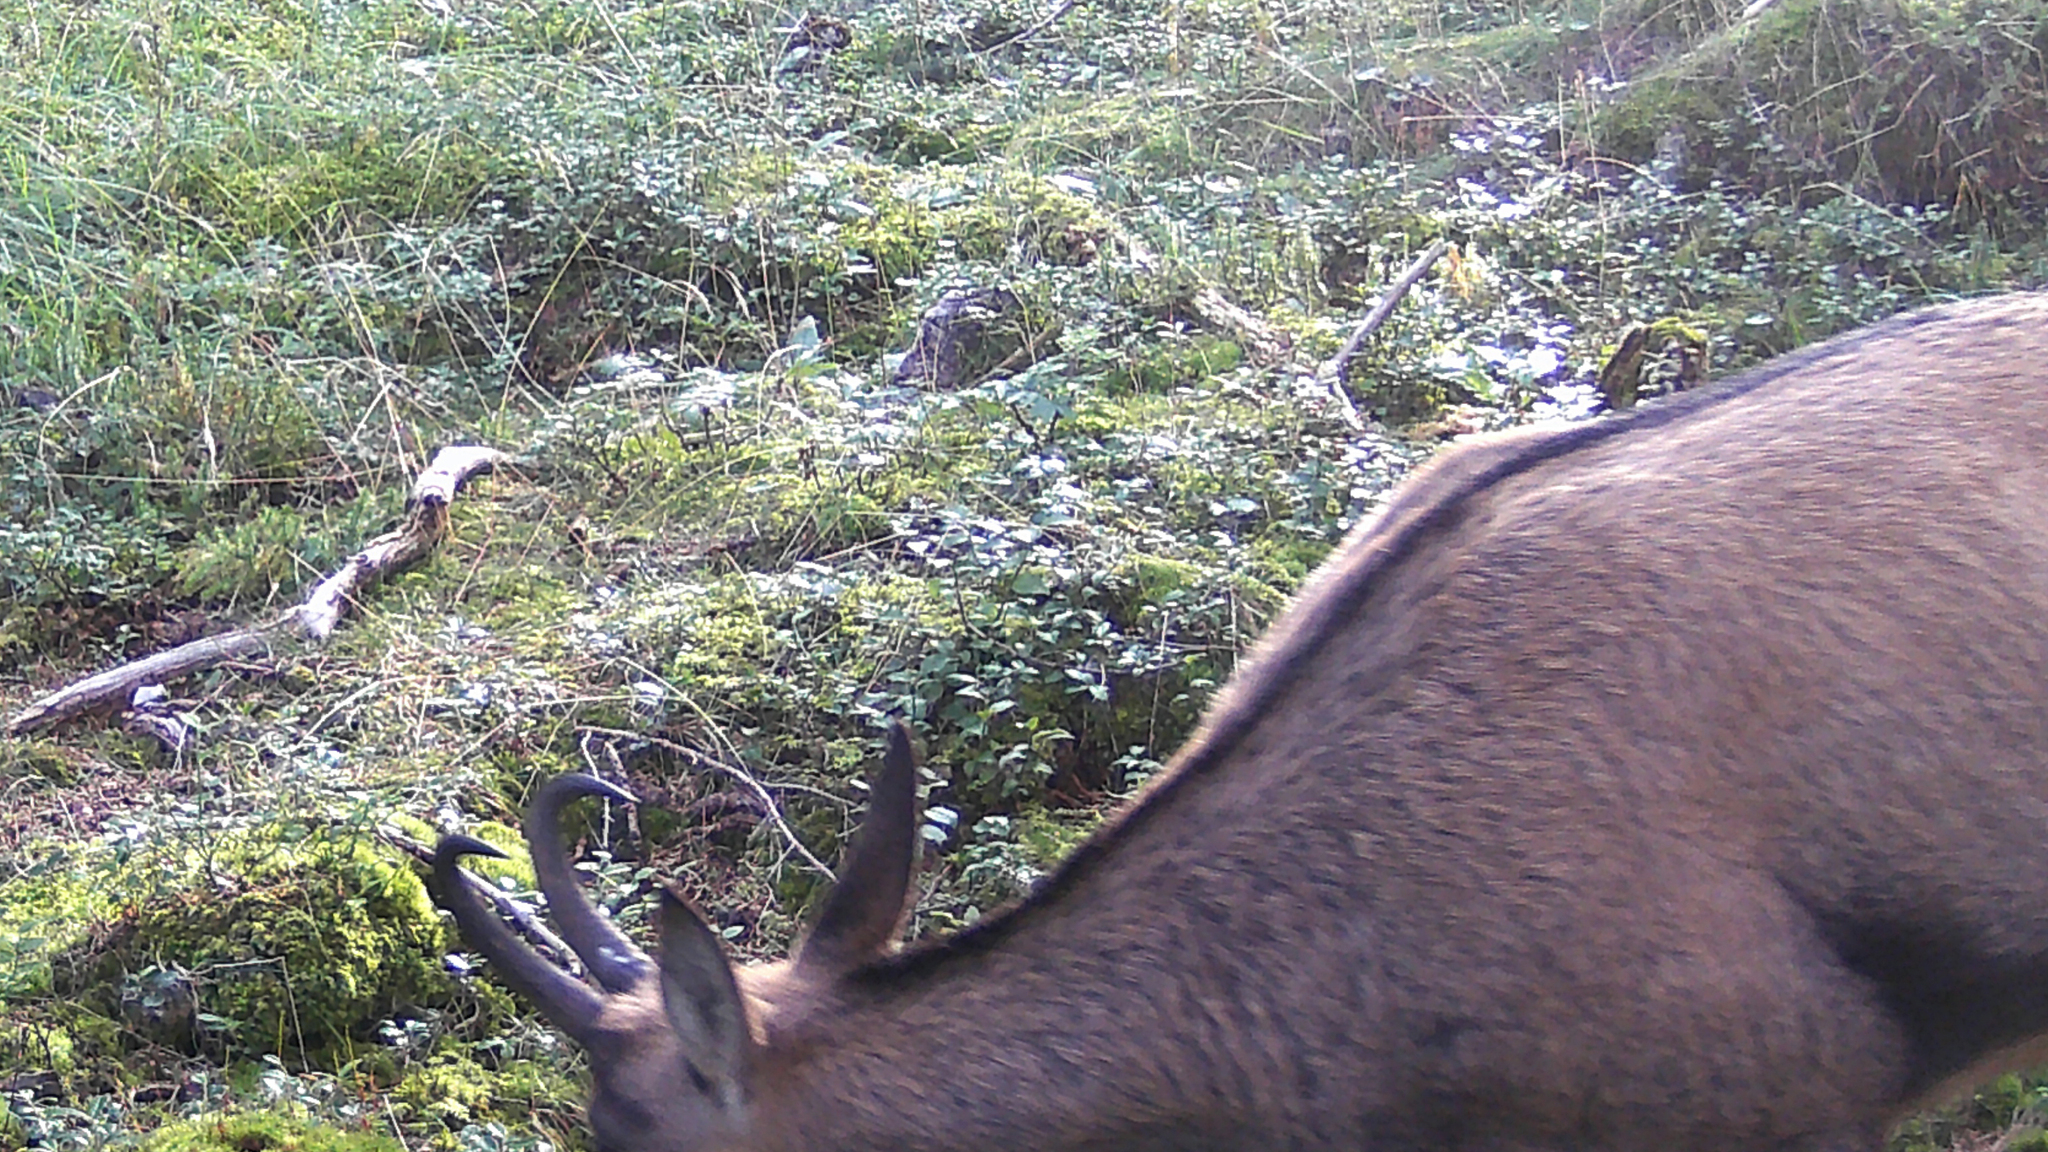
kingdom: Animalia
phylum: Chordata
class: Mammalia
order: Artiodactyla
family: Bovidae
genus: Rupicapra
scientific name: Rupicapra rupicapra
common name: Chamois
